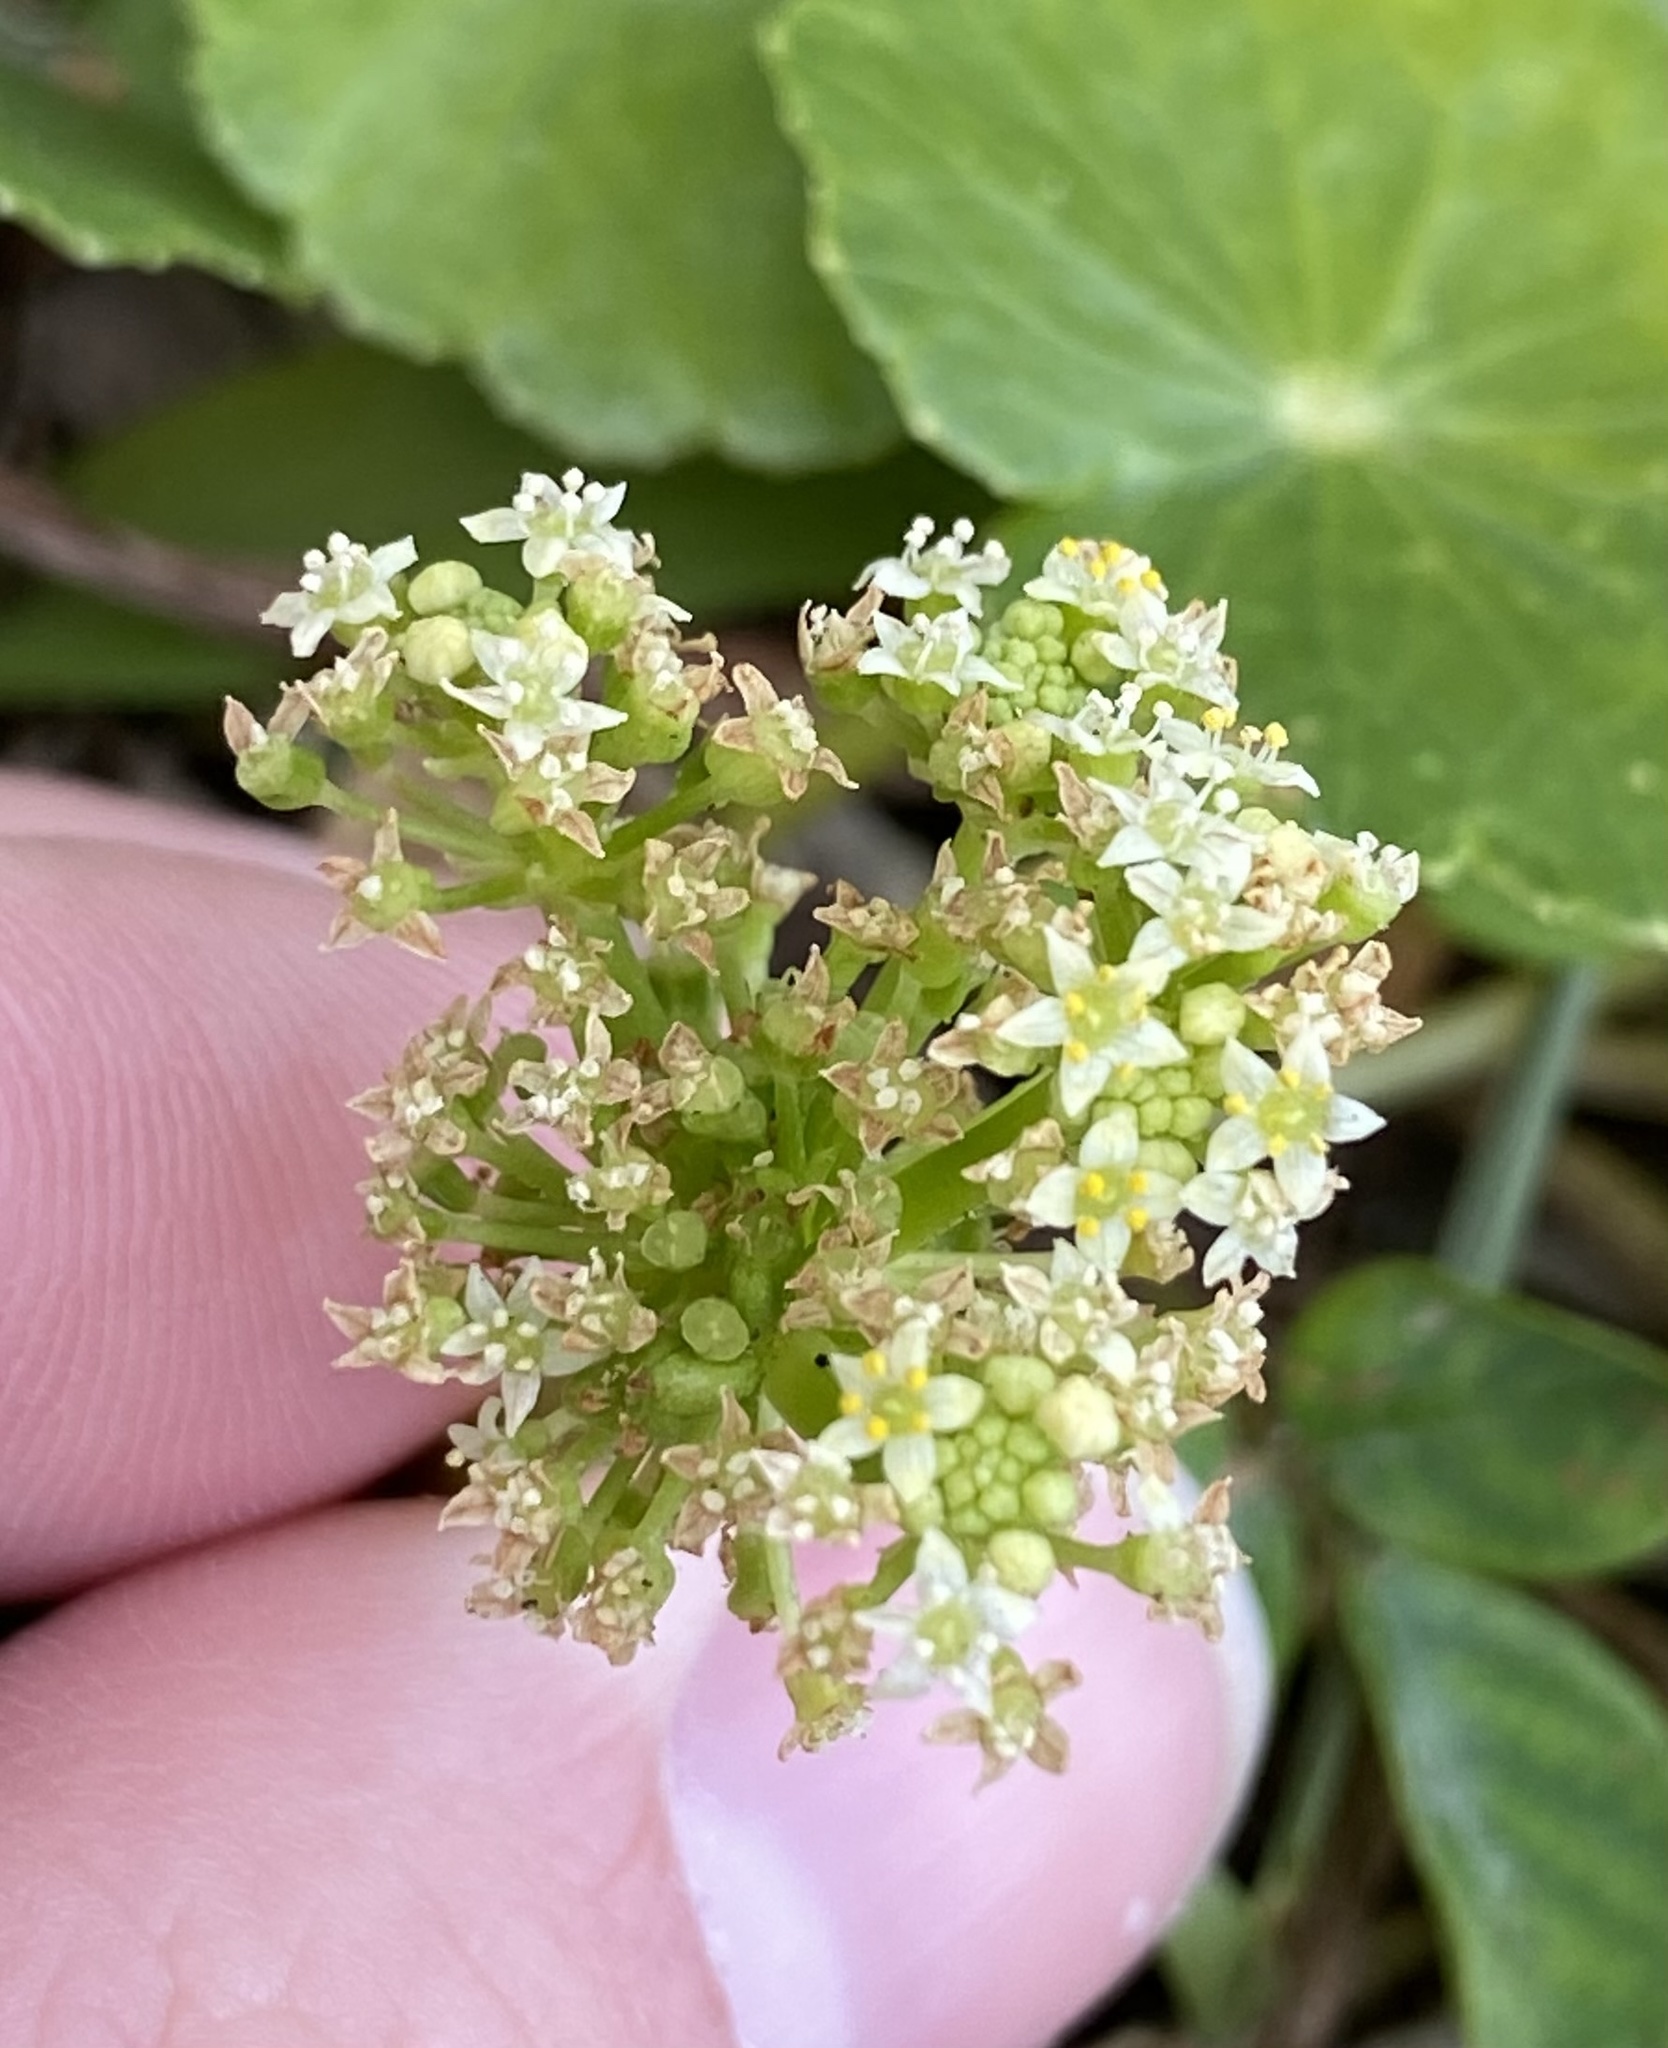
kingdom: Plantae
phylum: Tracheophyta
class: Magnoliopsida
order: Apiales
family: Araliaceae
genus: Hydrocotyle
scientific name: Hydrocotyle bonariensis
